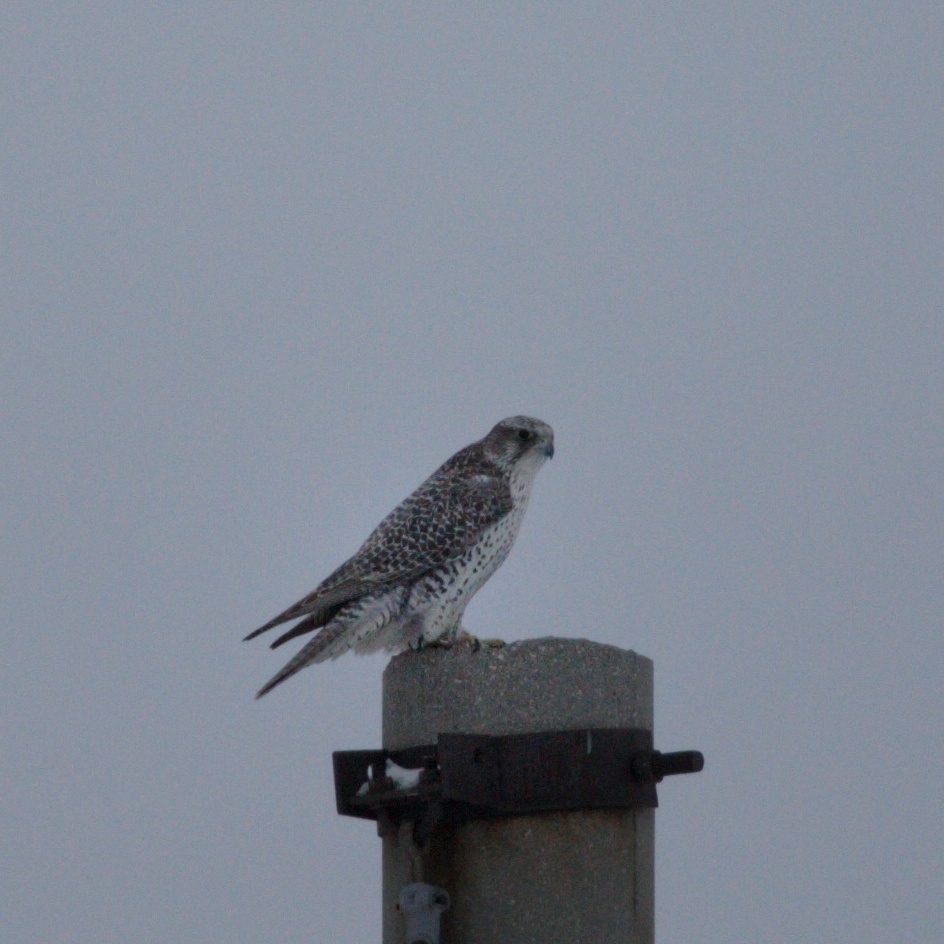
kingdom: Animalia
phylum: Chordata
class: Aves
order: Falconiformes
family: Falconidae
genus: Falco
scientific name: Falco rusticolus
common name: Gyrfalcon
